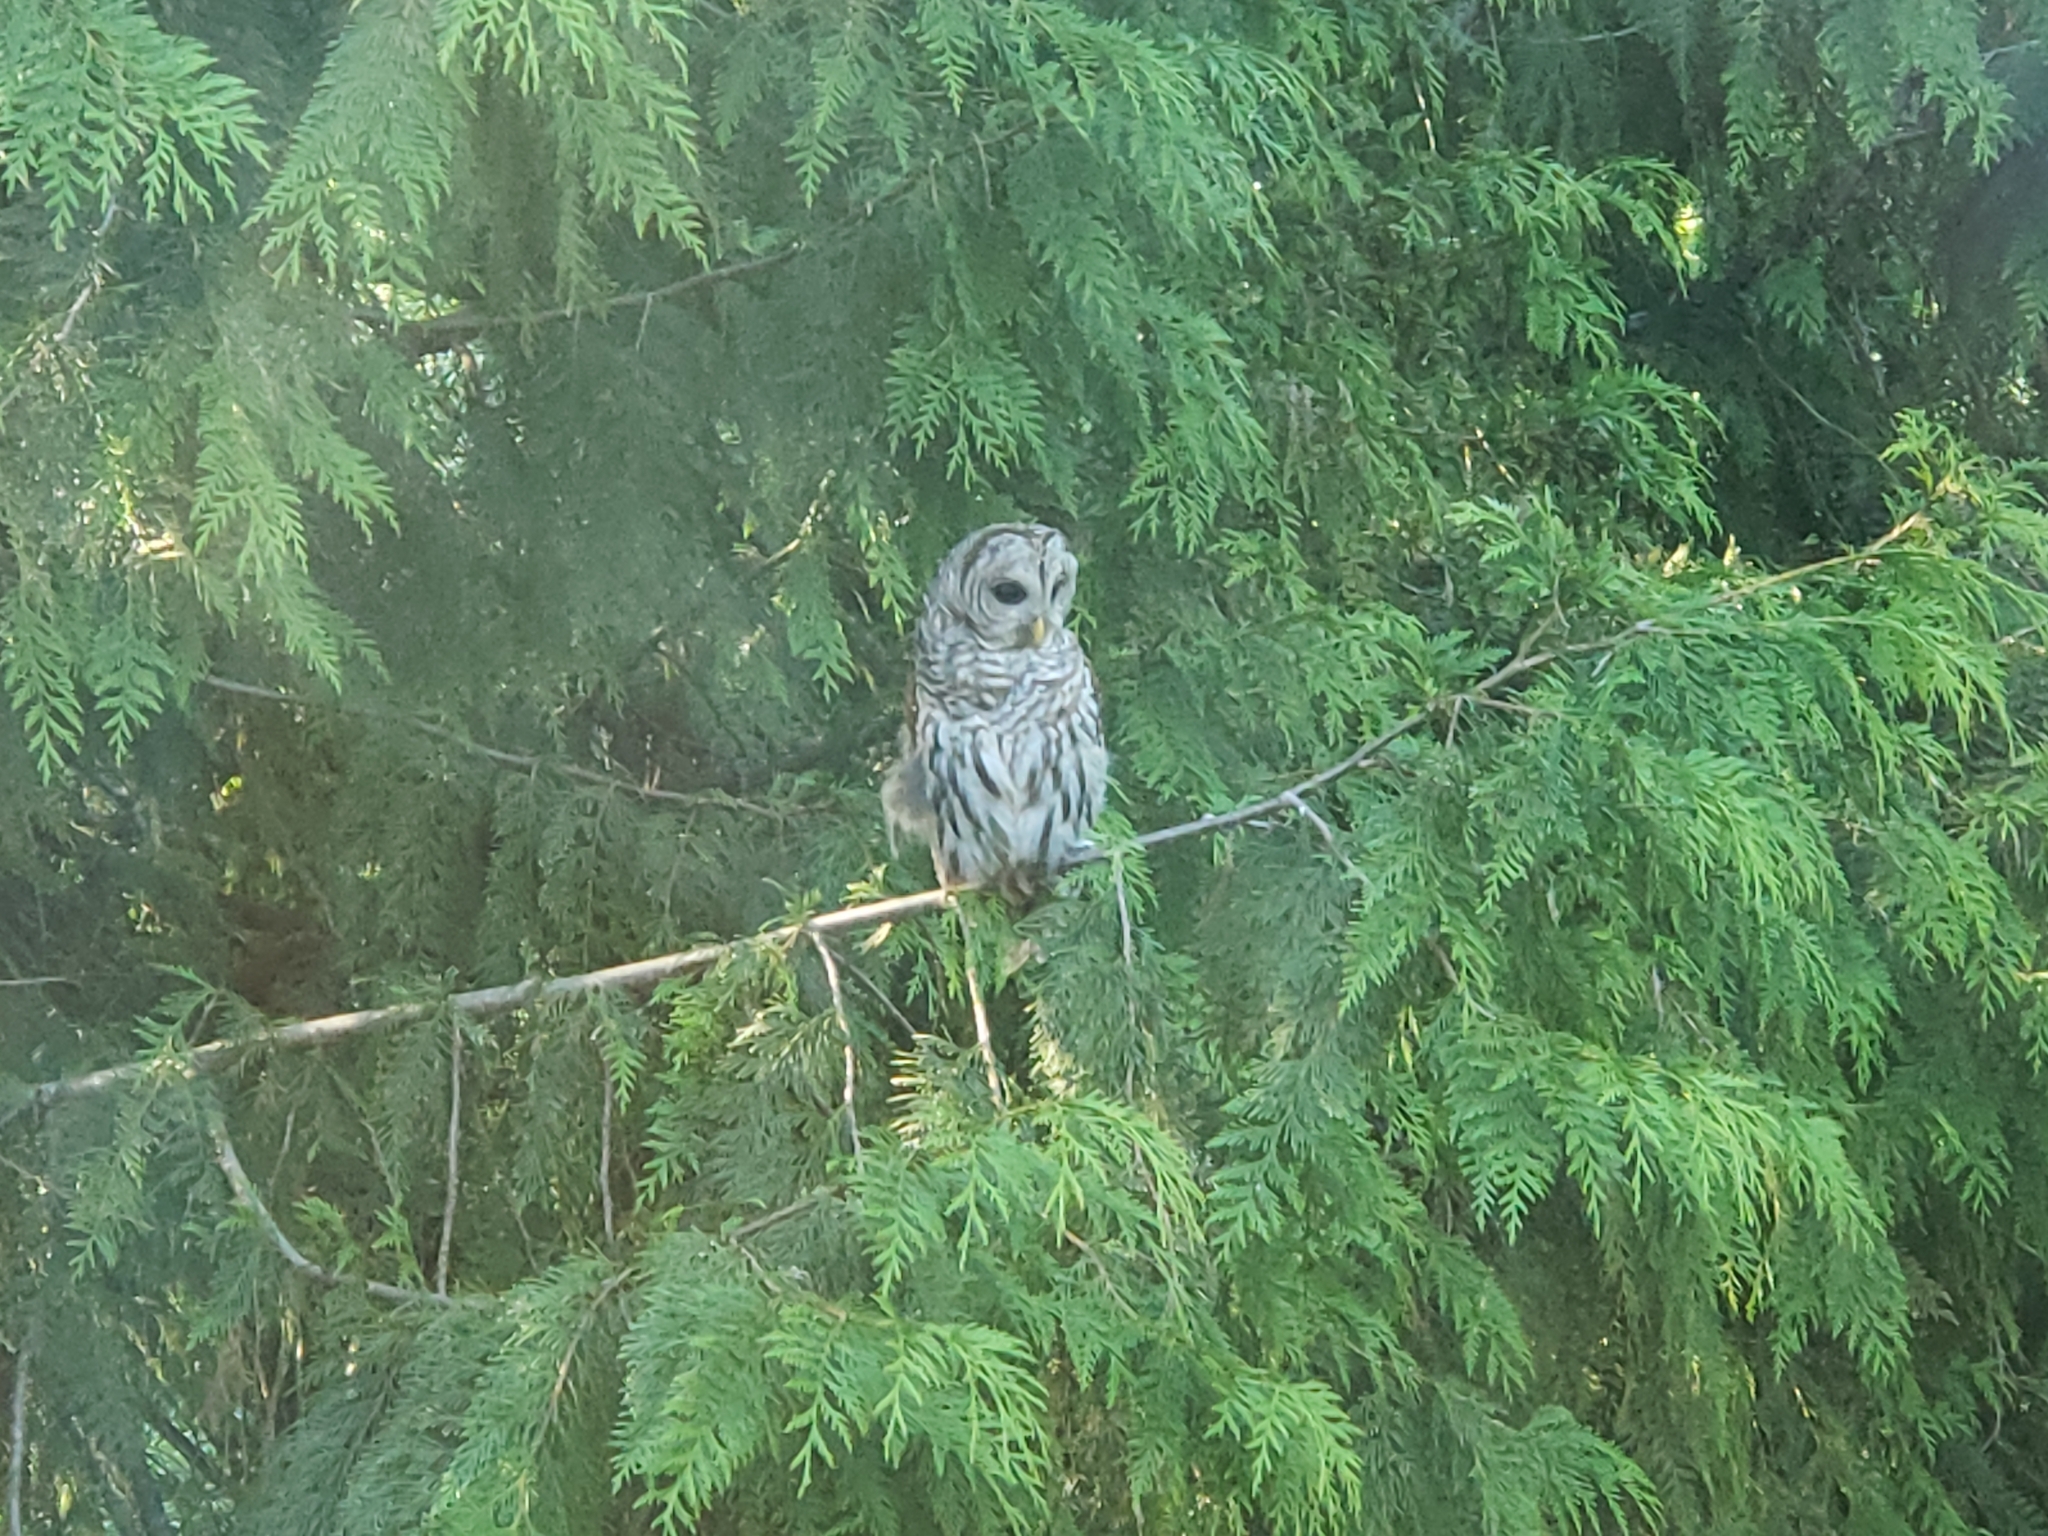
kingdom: Animalia
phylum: Chordata
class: Aves
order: Strigiformes
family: Strigidae
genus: Strix
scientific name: Strix varia
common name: Barred owl
